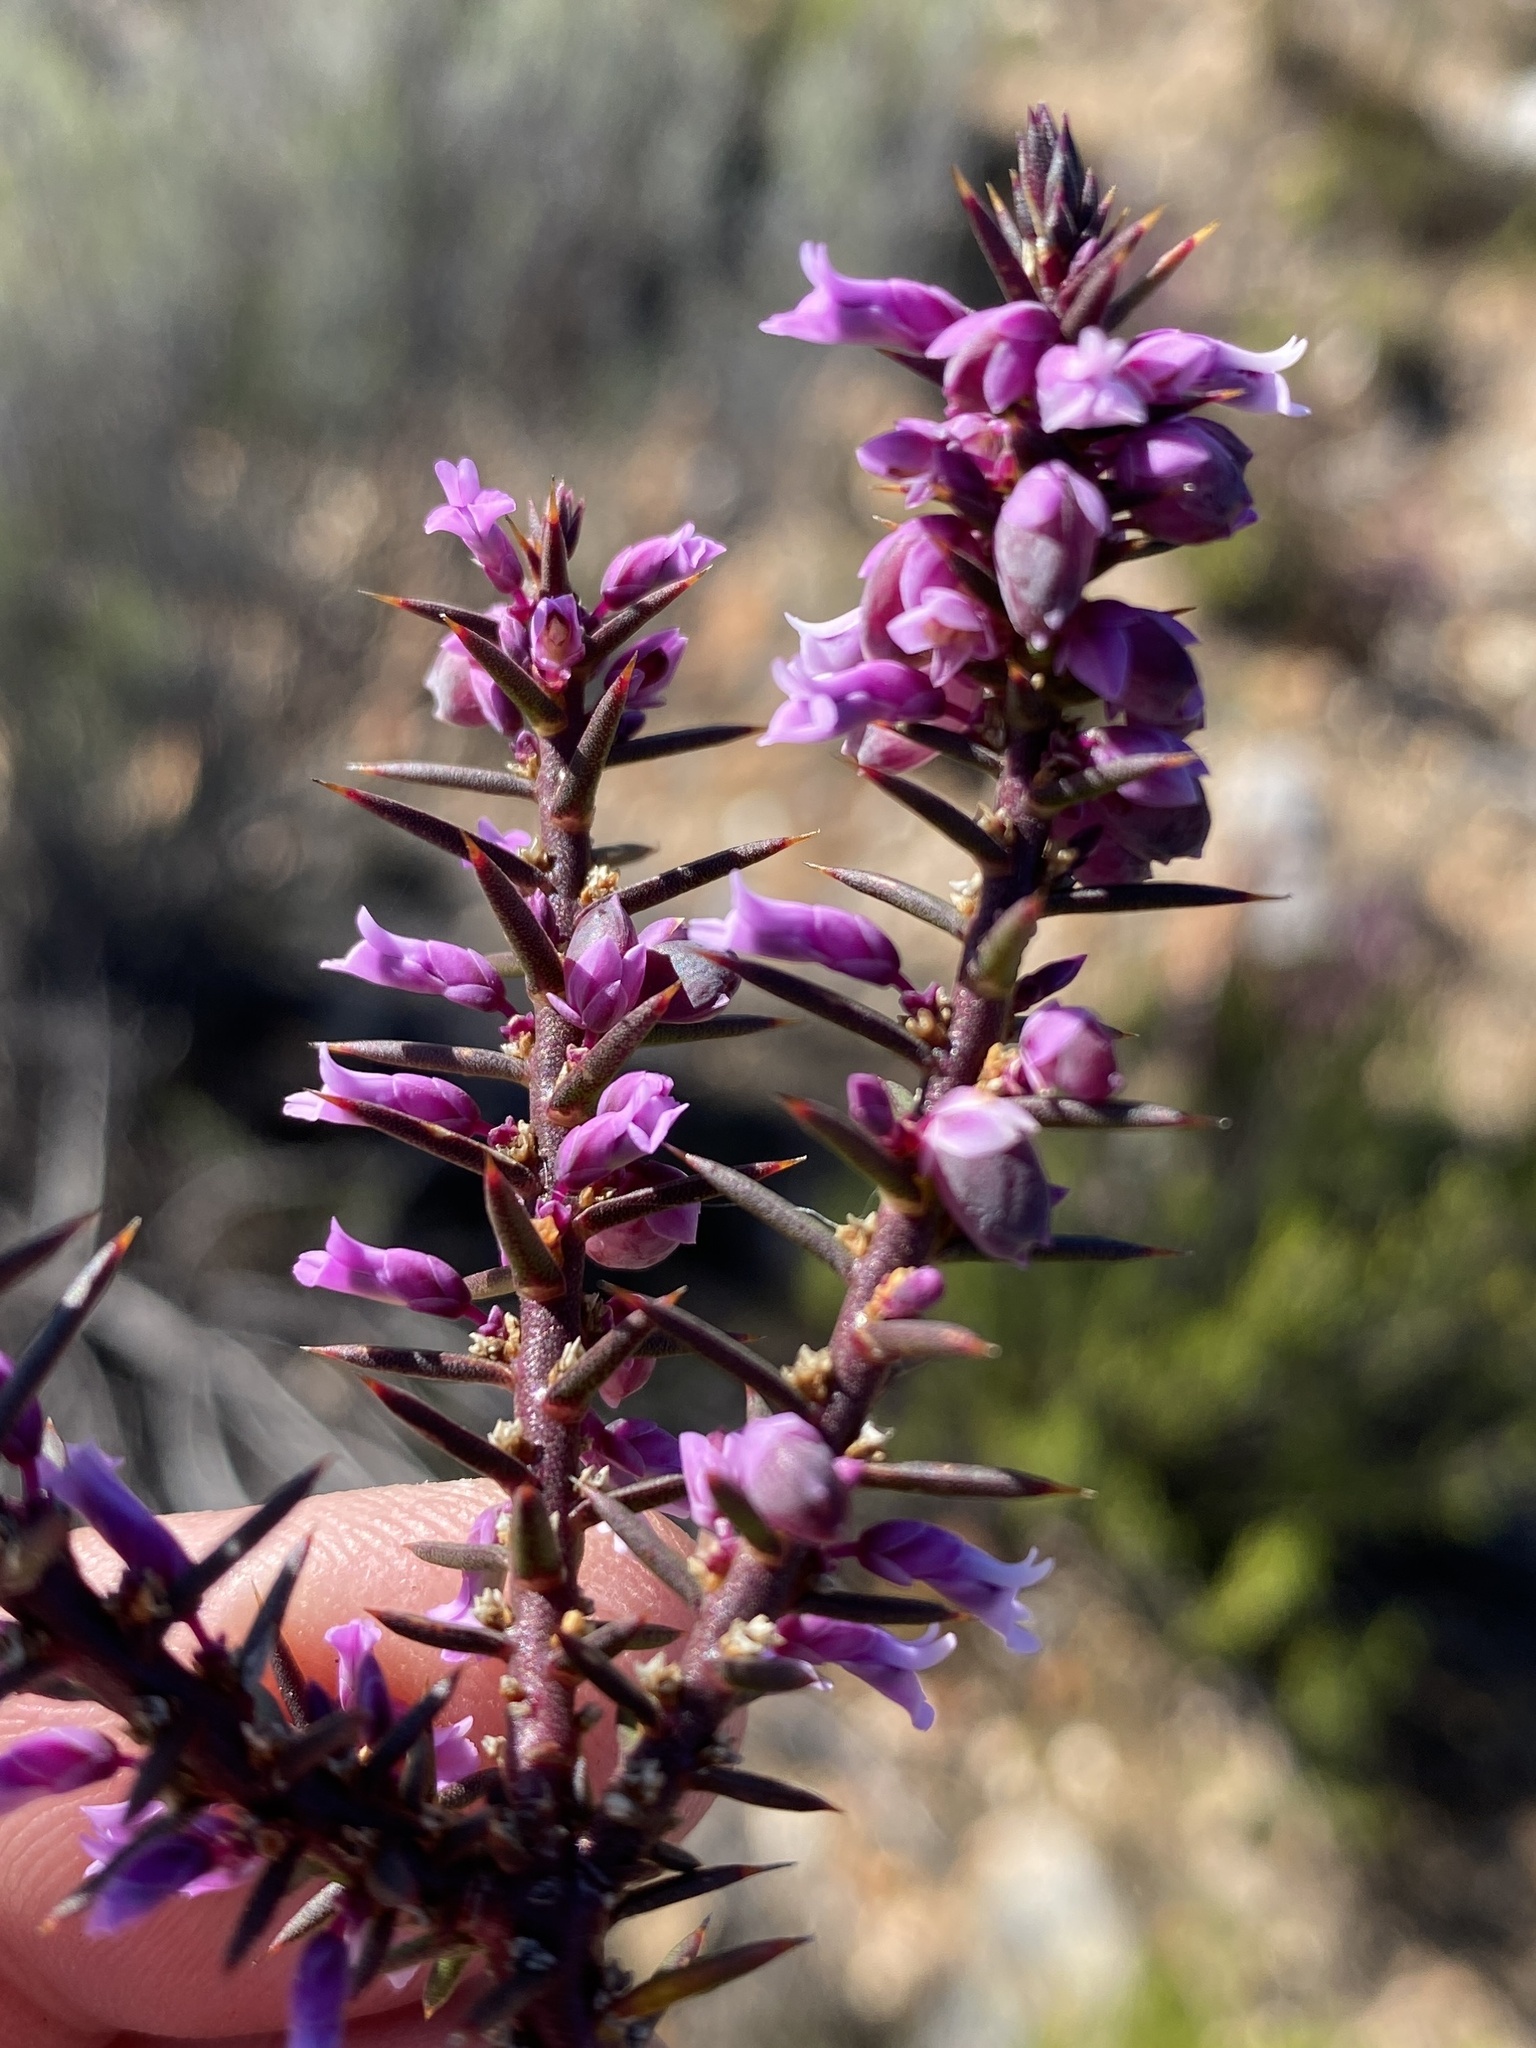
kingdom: Plantae
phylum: Tracheophyta
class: Magnoliopsida
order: Fabales
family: Polygalaceae
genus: Muraltia
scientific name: Muraltia juniperifolia
